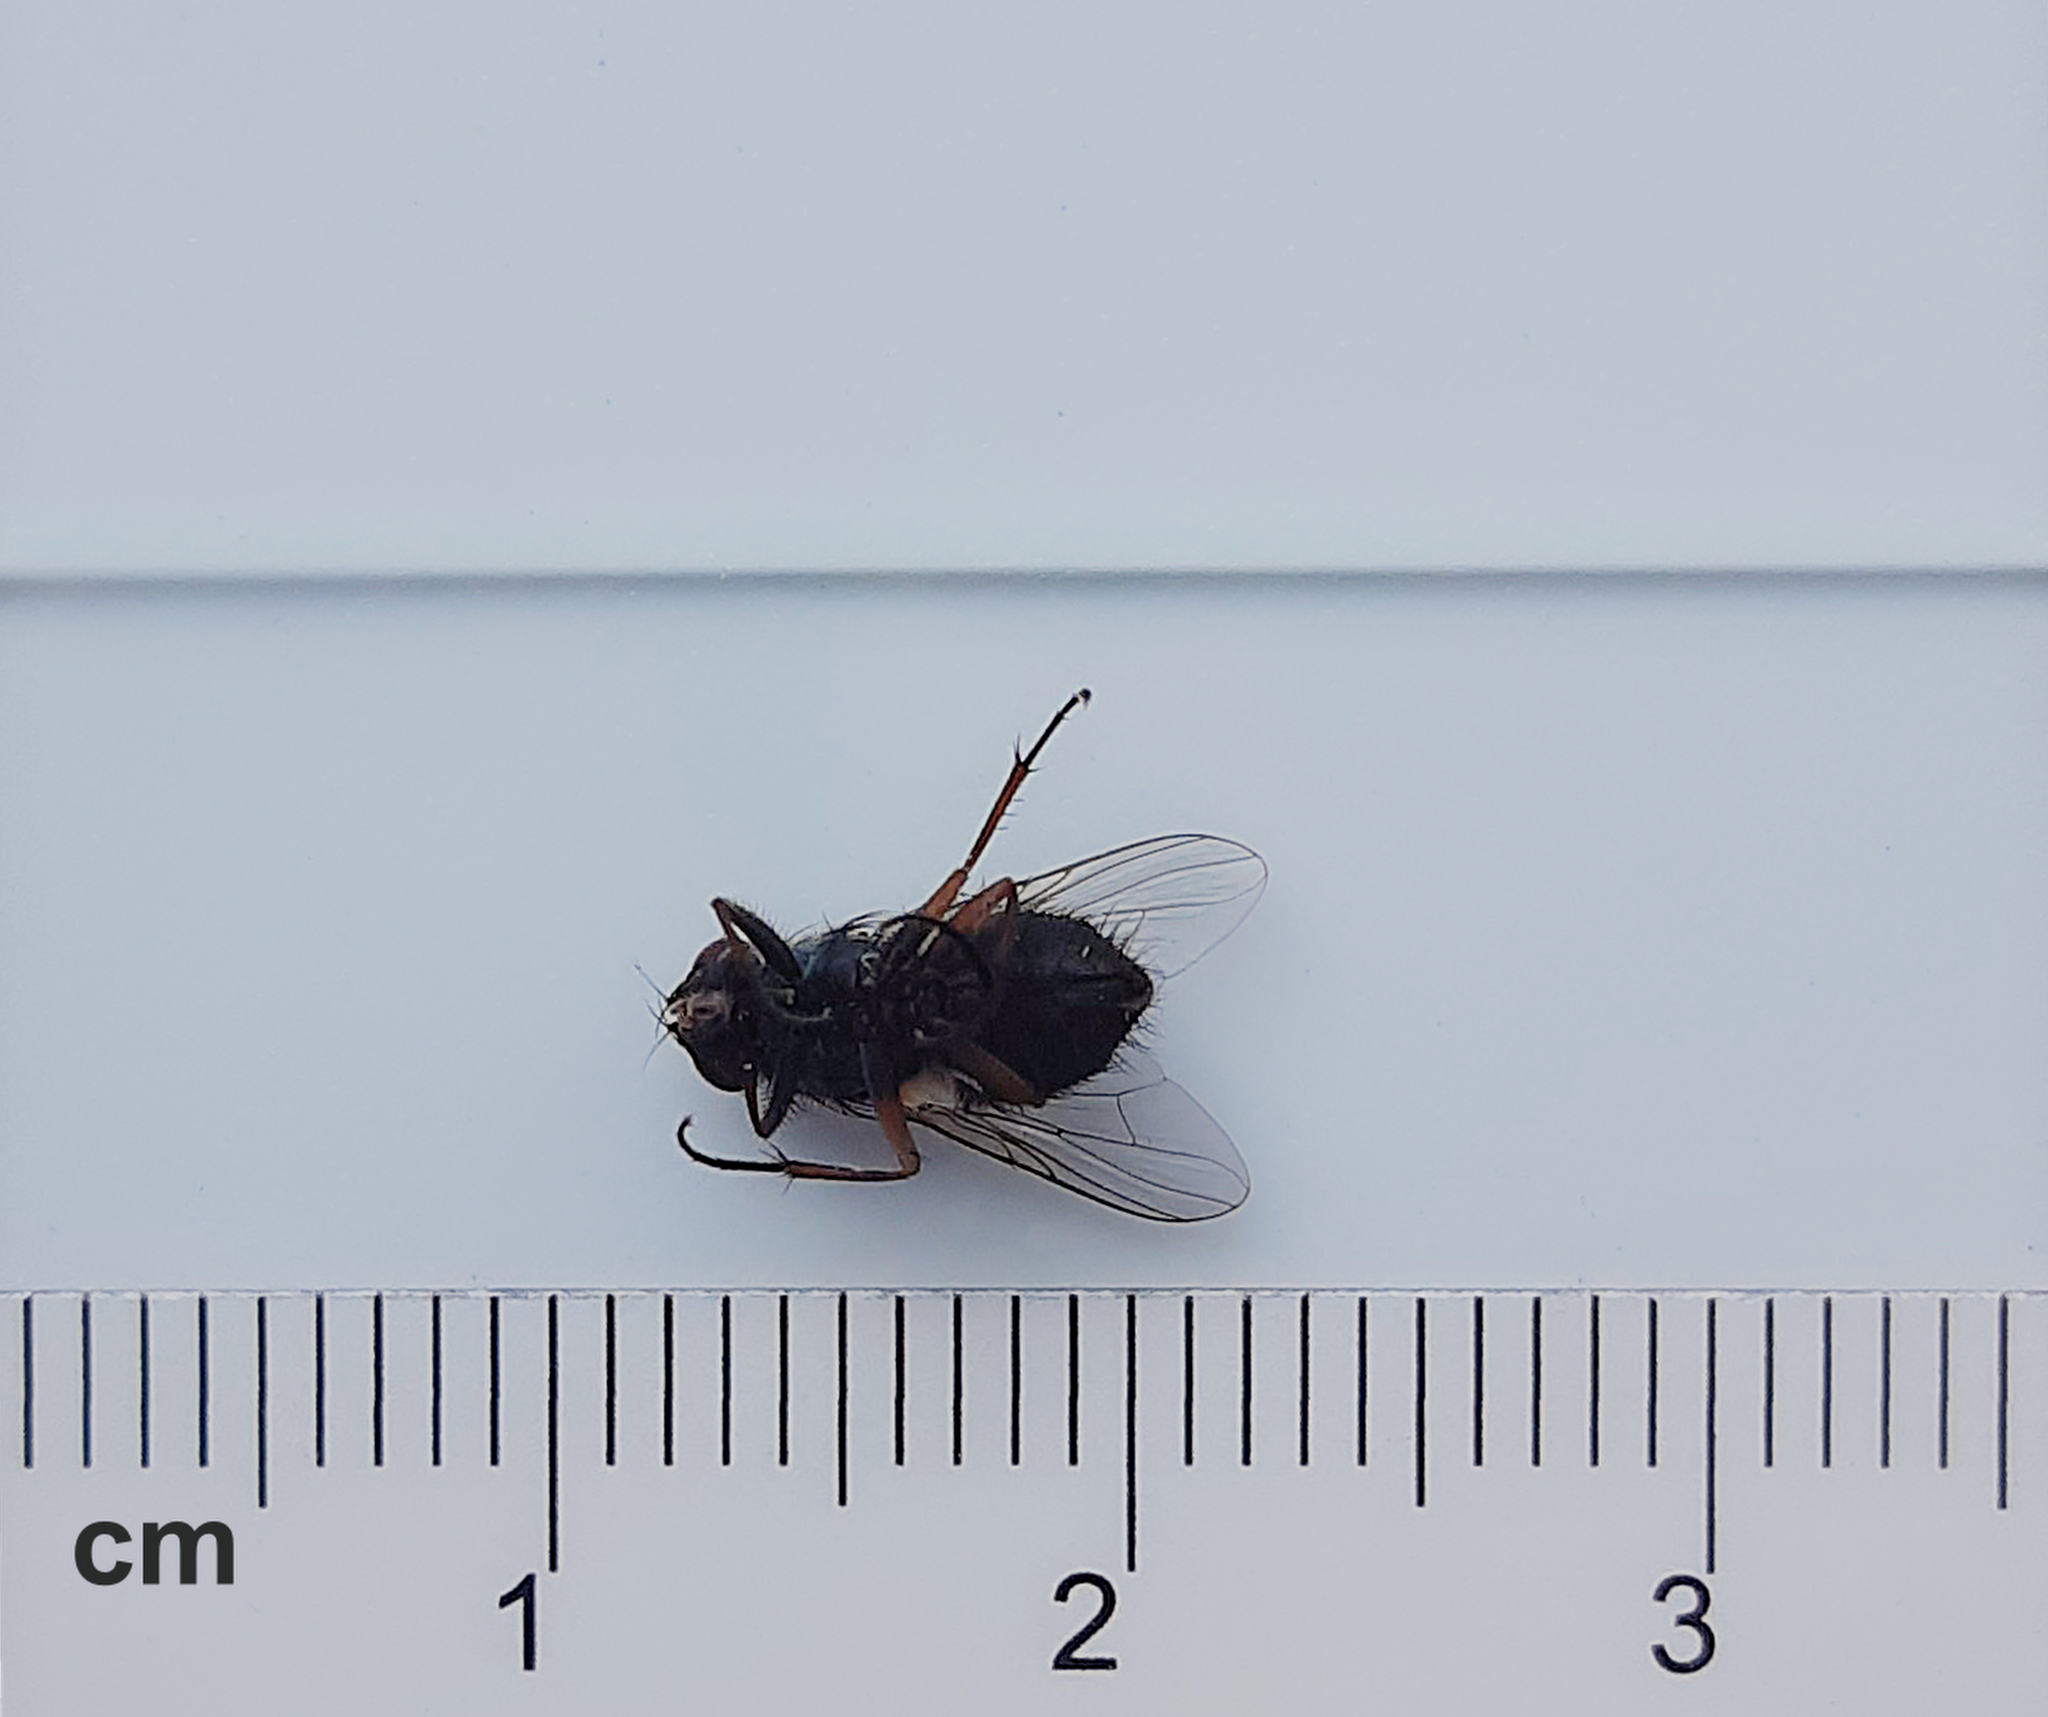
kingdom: Animalia
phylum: Arthropoda
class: Insecta
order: Diptera
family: Muscidae
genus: Muscina
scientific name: Muscina stabulans
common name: False stable fly
